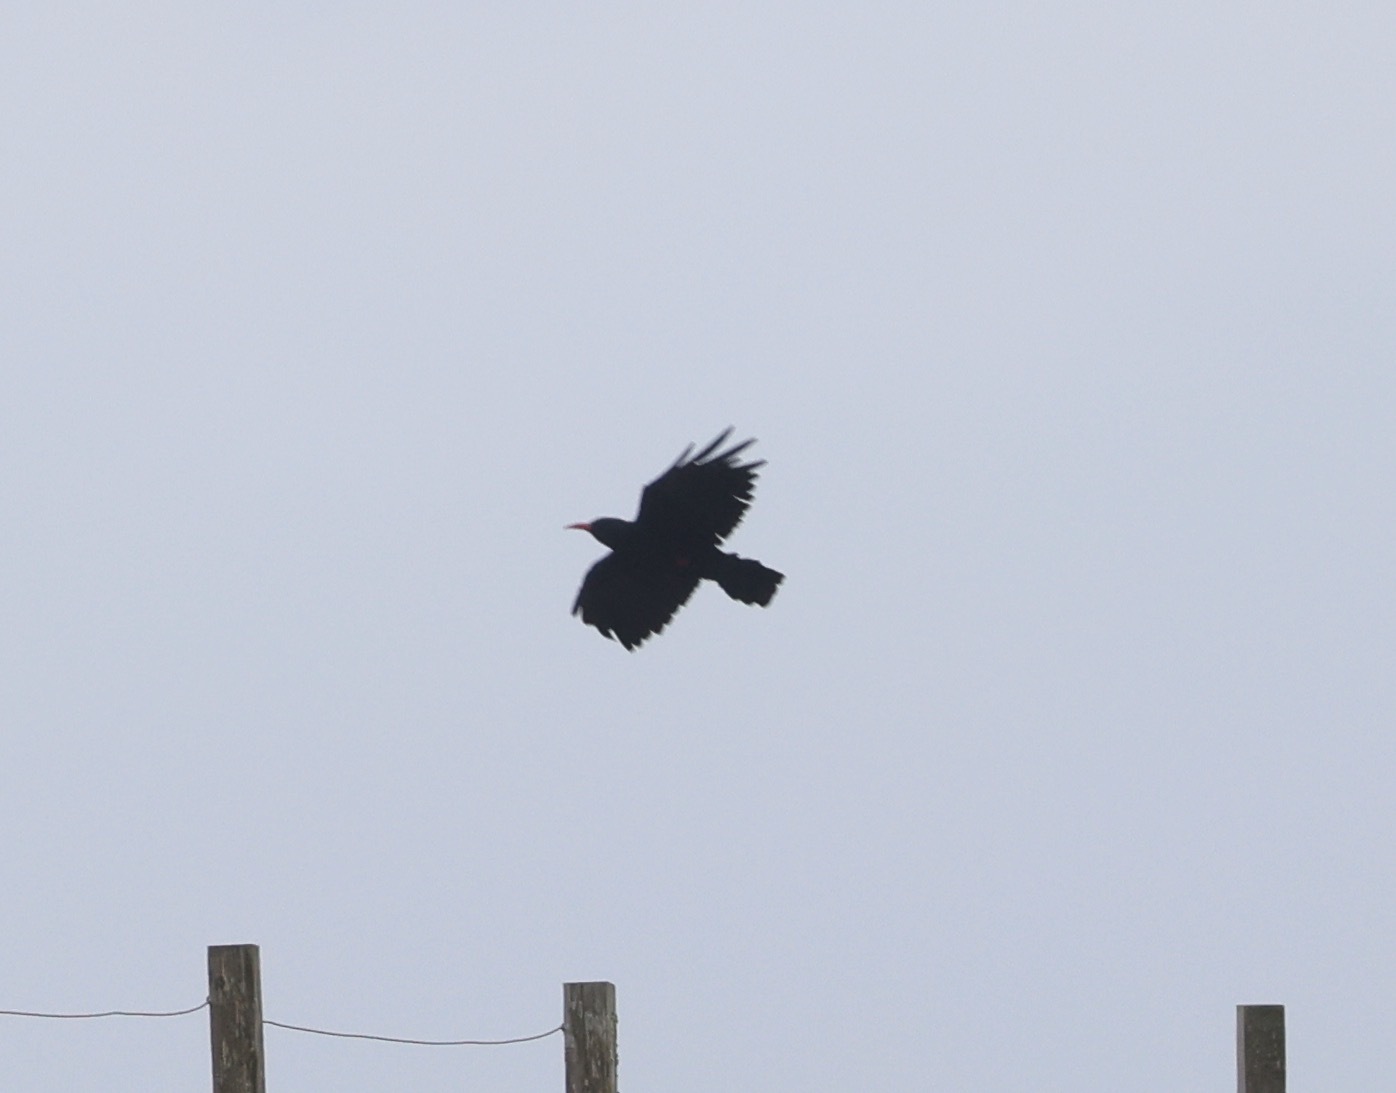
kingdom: Animalia
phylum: Chordata
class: Aves
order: Passeriformes
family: Corvidae
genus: Pyrrhocorax
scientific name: Pyrrhocorax pyrrhocorax
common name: Red-billed chough
